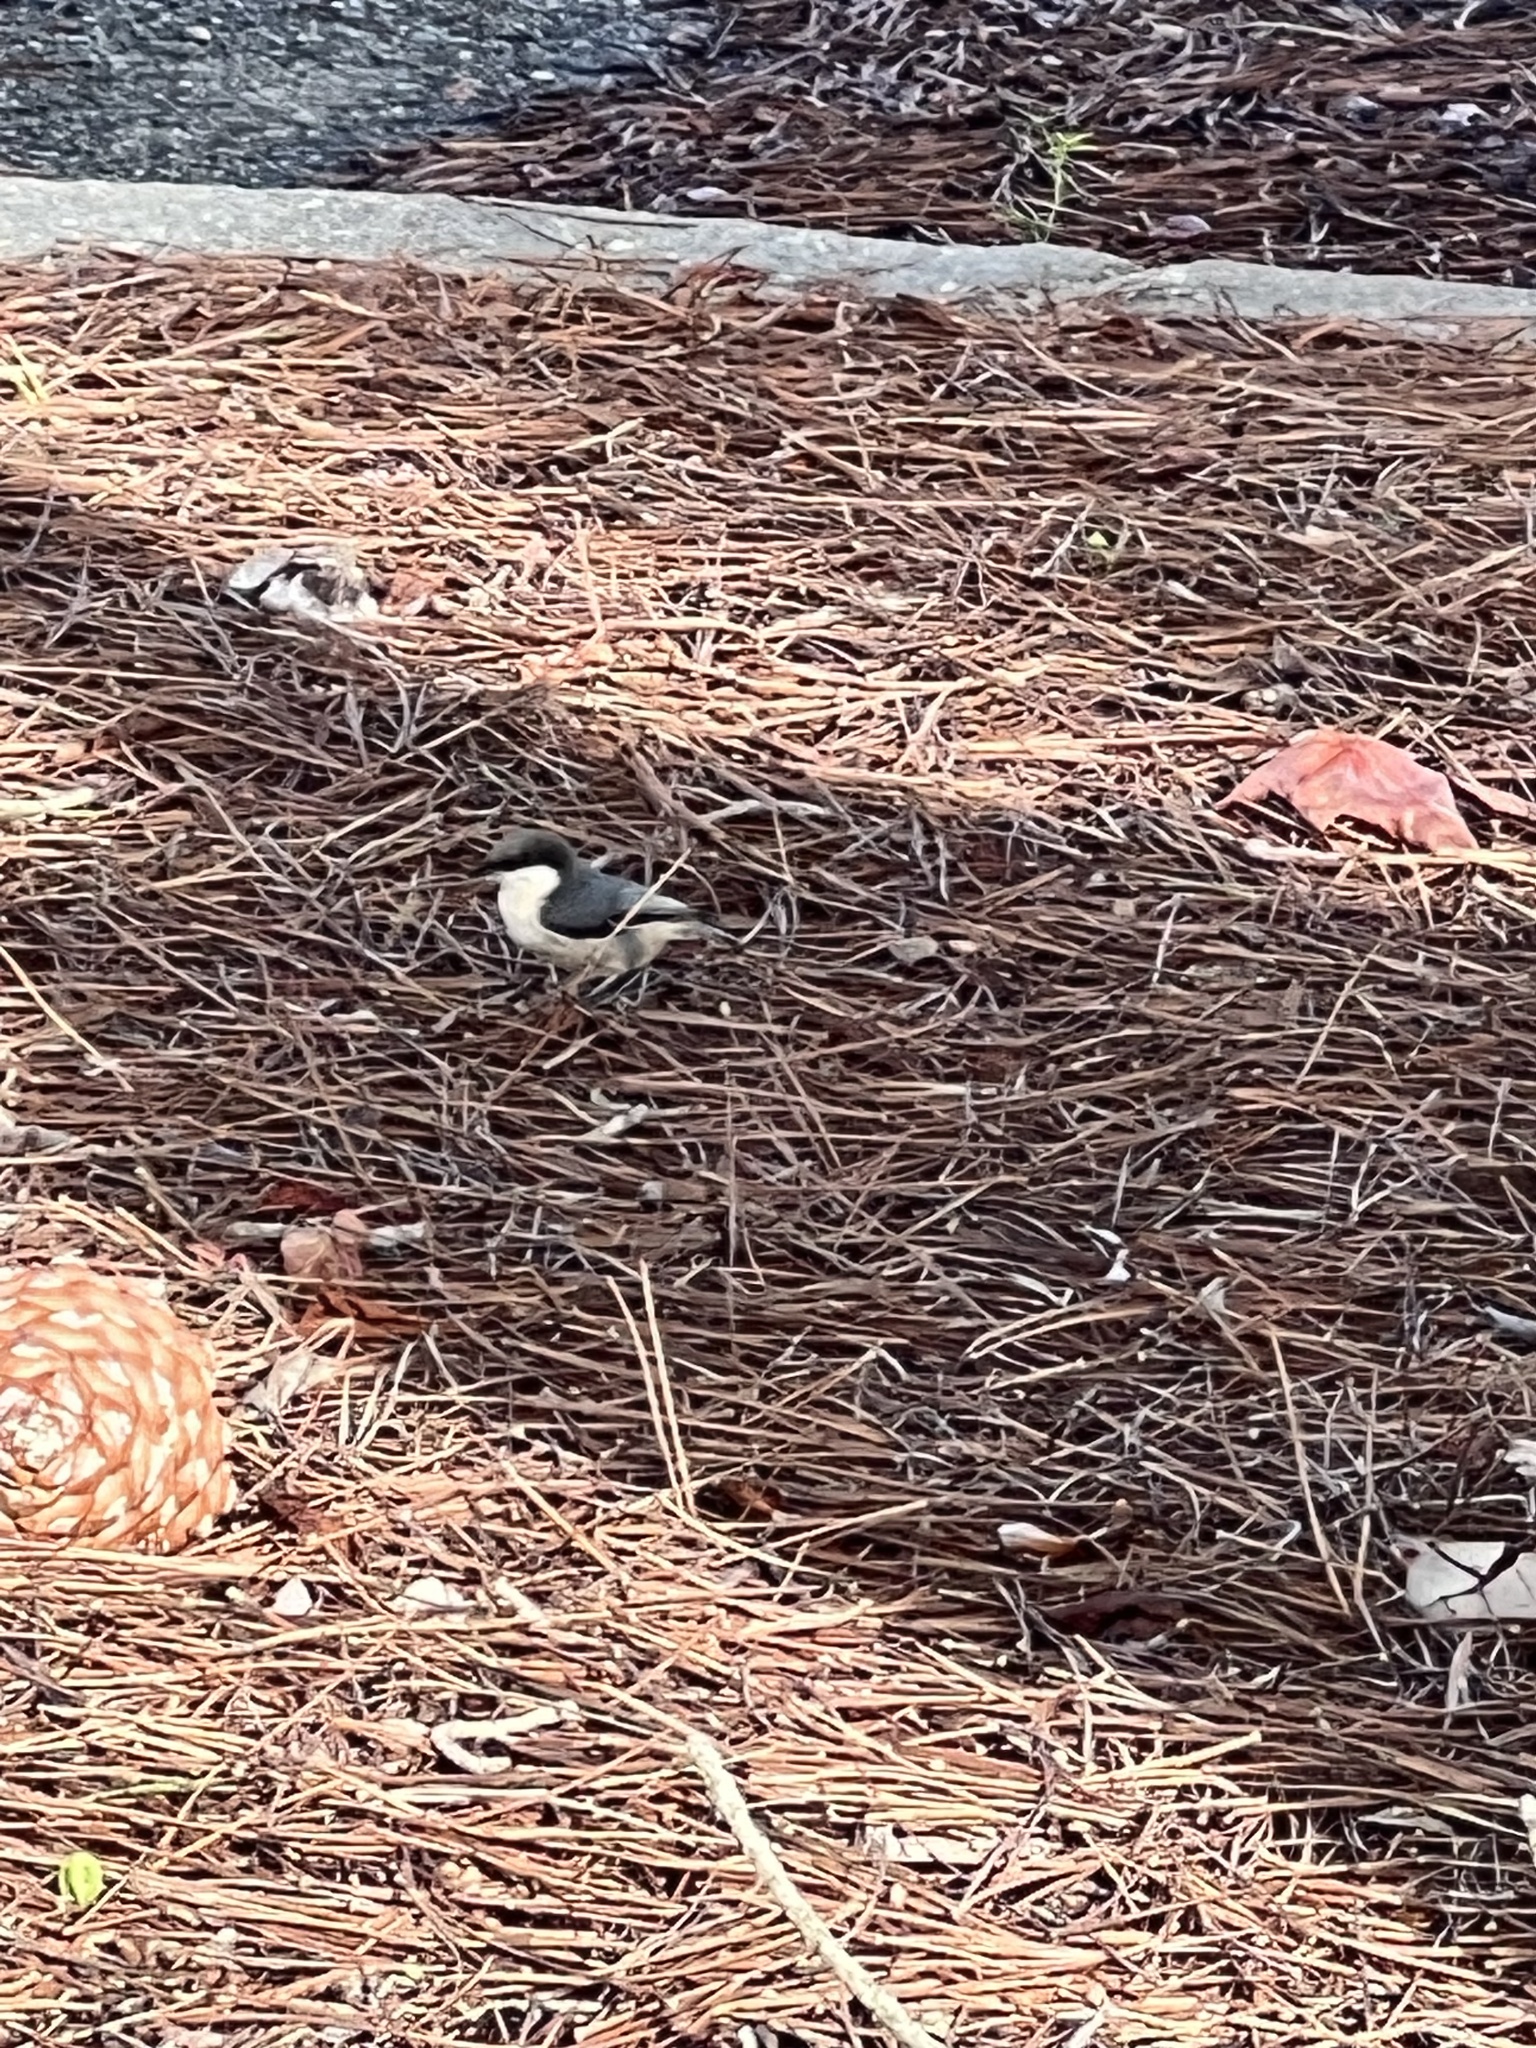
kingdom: Animalia
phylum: Chordata
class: Aves
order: Passeriformes
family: Sittidae
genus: Sitta
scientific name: Sitta pygmaea
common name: Pygmy nuthatch
